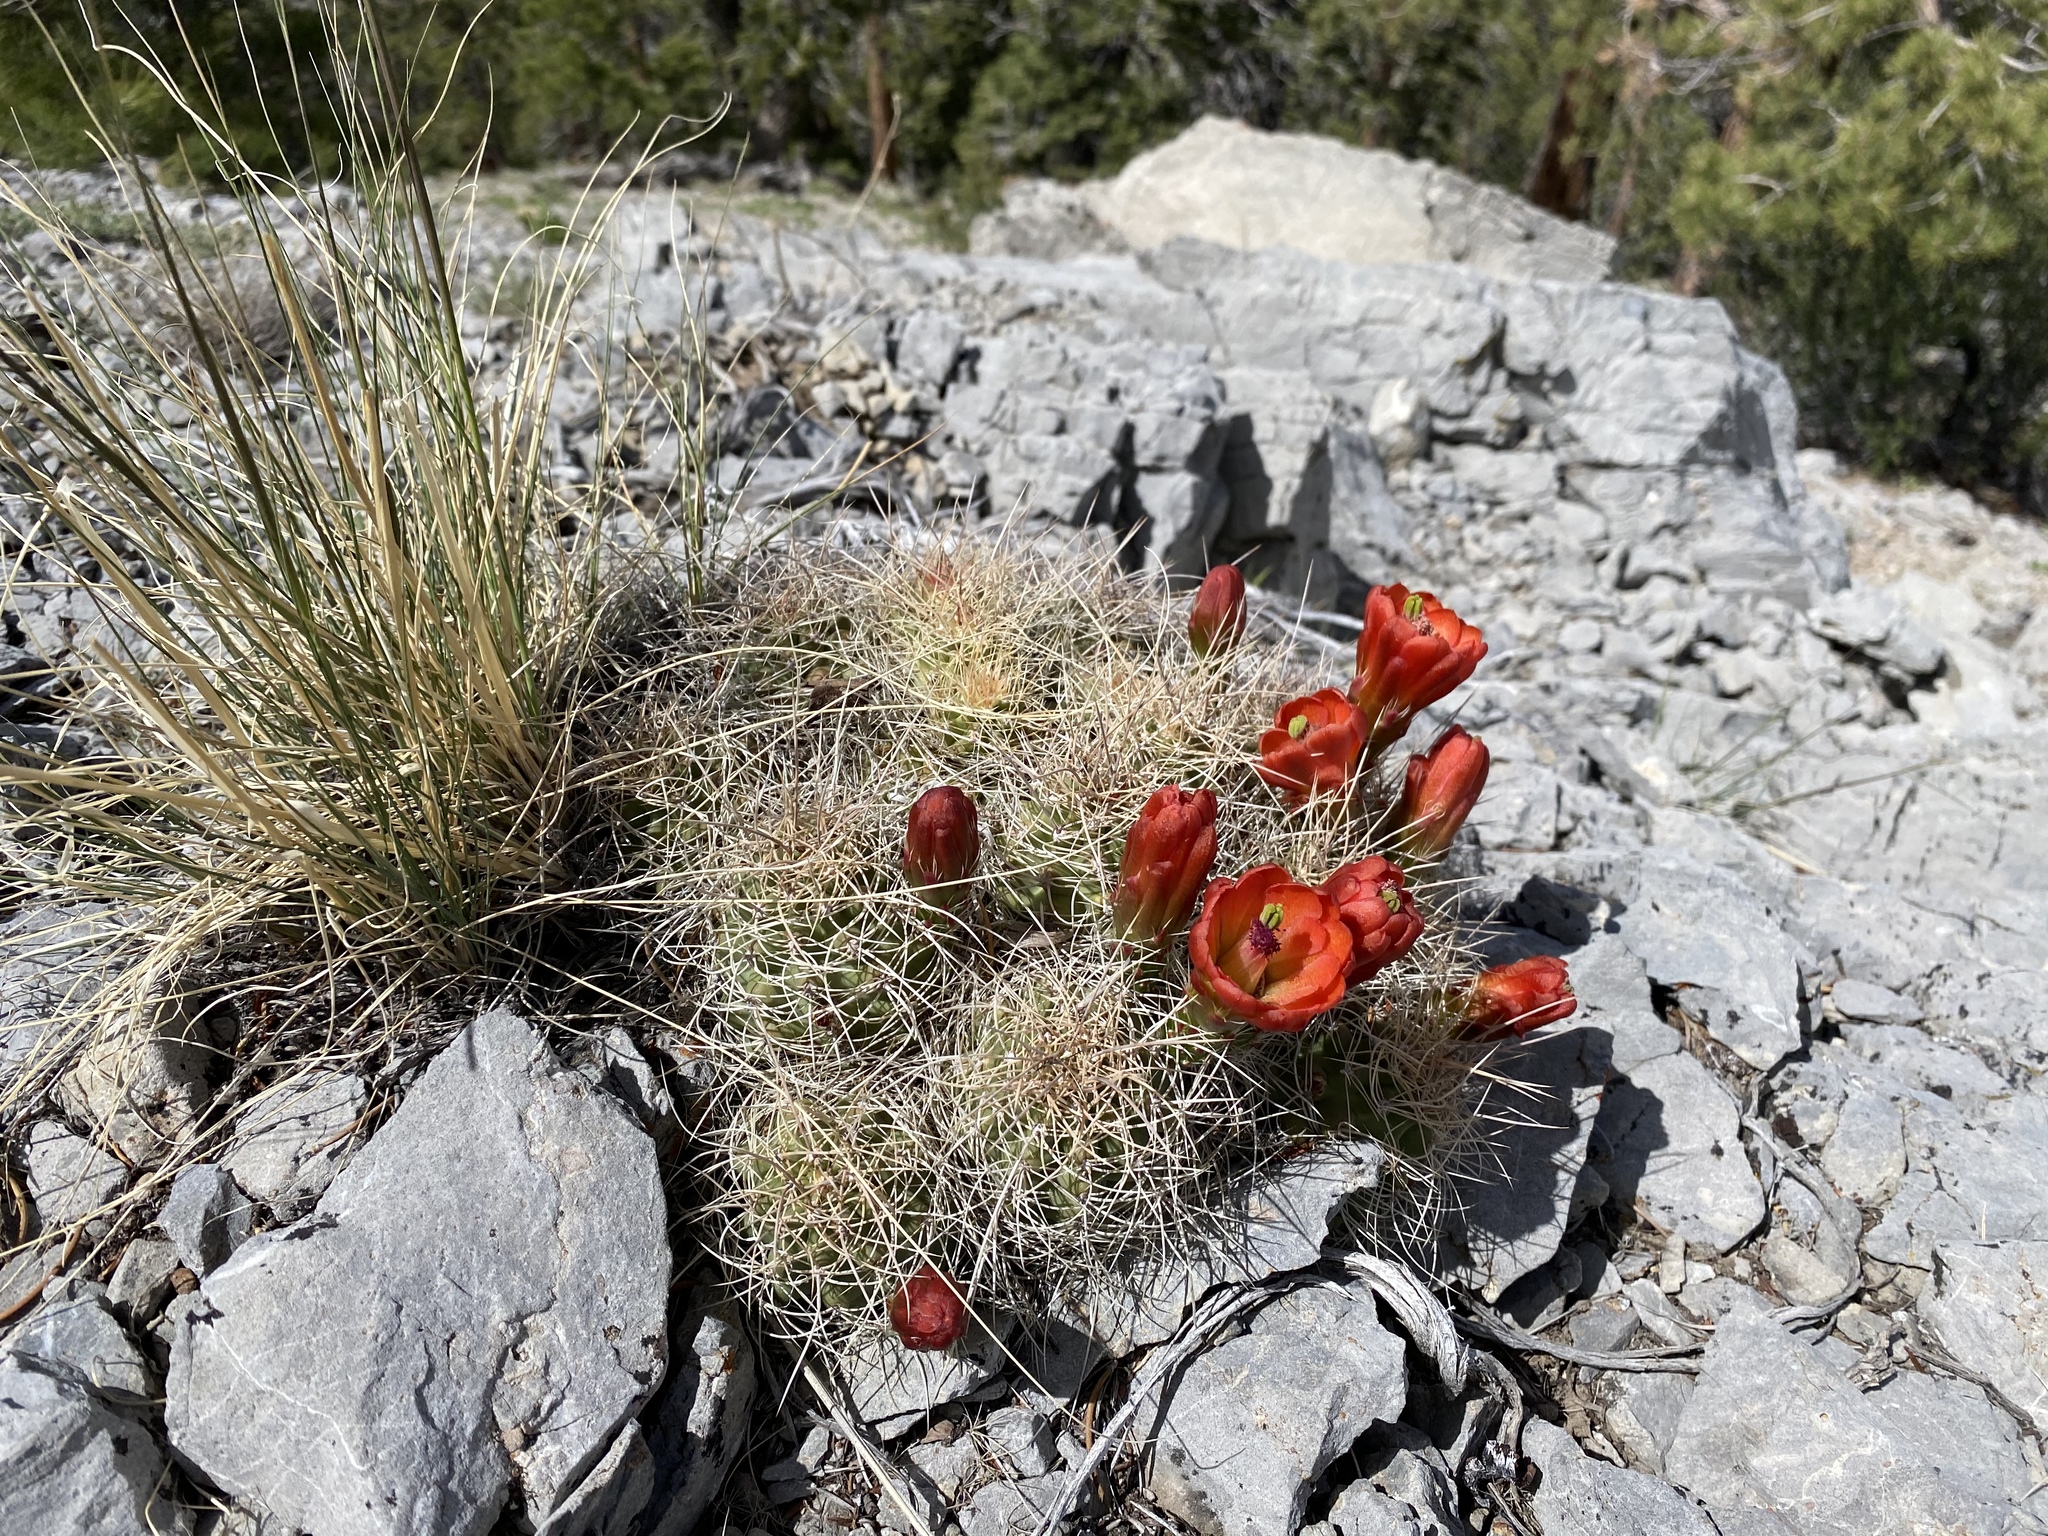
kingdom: Plantae
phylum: Tracheophyta
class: Magnoliopsida
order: Caryophyllales
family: Cactaceae
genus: Echinocereus
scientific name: Echinocereus triglochidiatus
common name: Claretcup hedgehog
